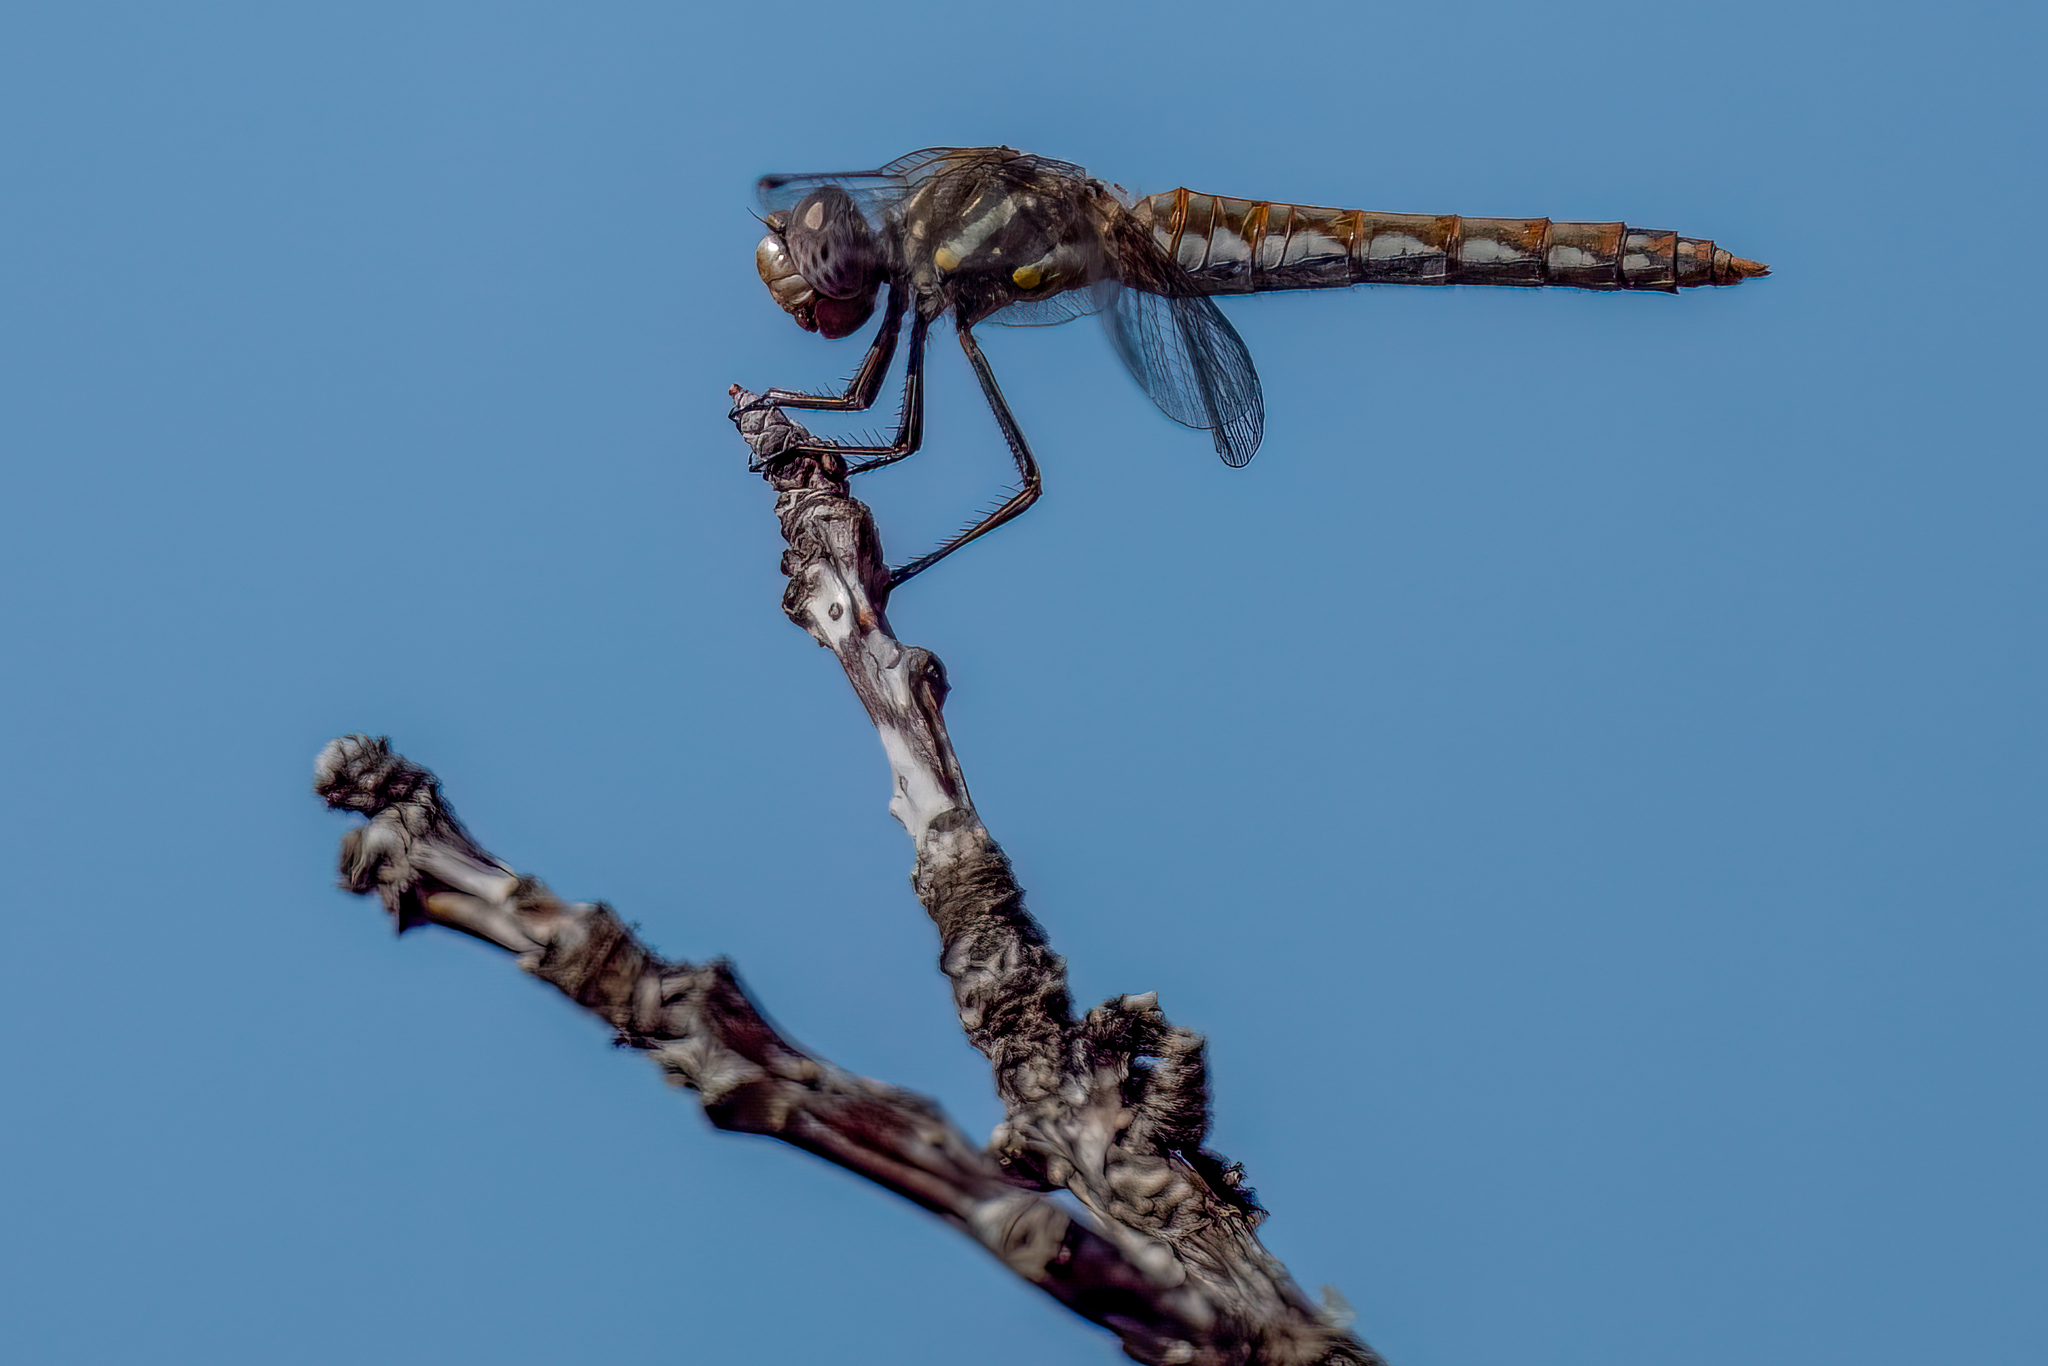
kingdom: Animalia
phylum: Arthropoda
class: Insecta
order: Odonata
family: Libellulidae
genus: Sympetrum
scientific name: Sympetrum corruptum
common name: Variegated meadowhawk
